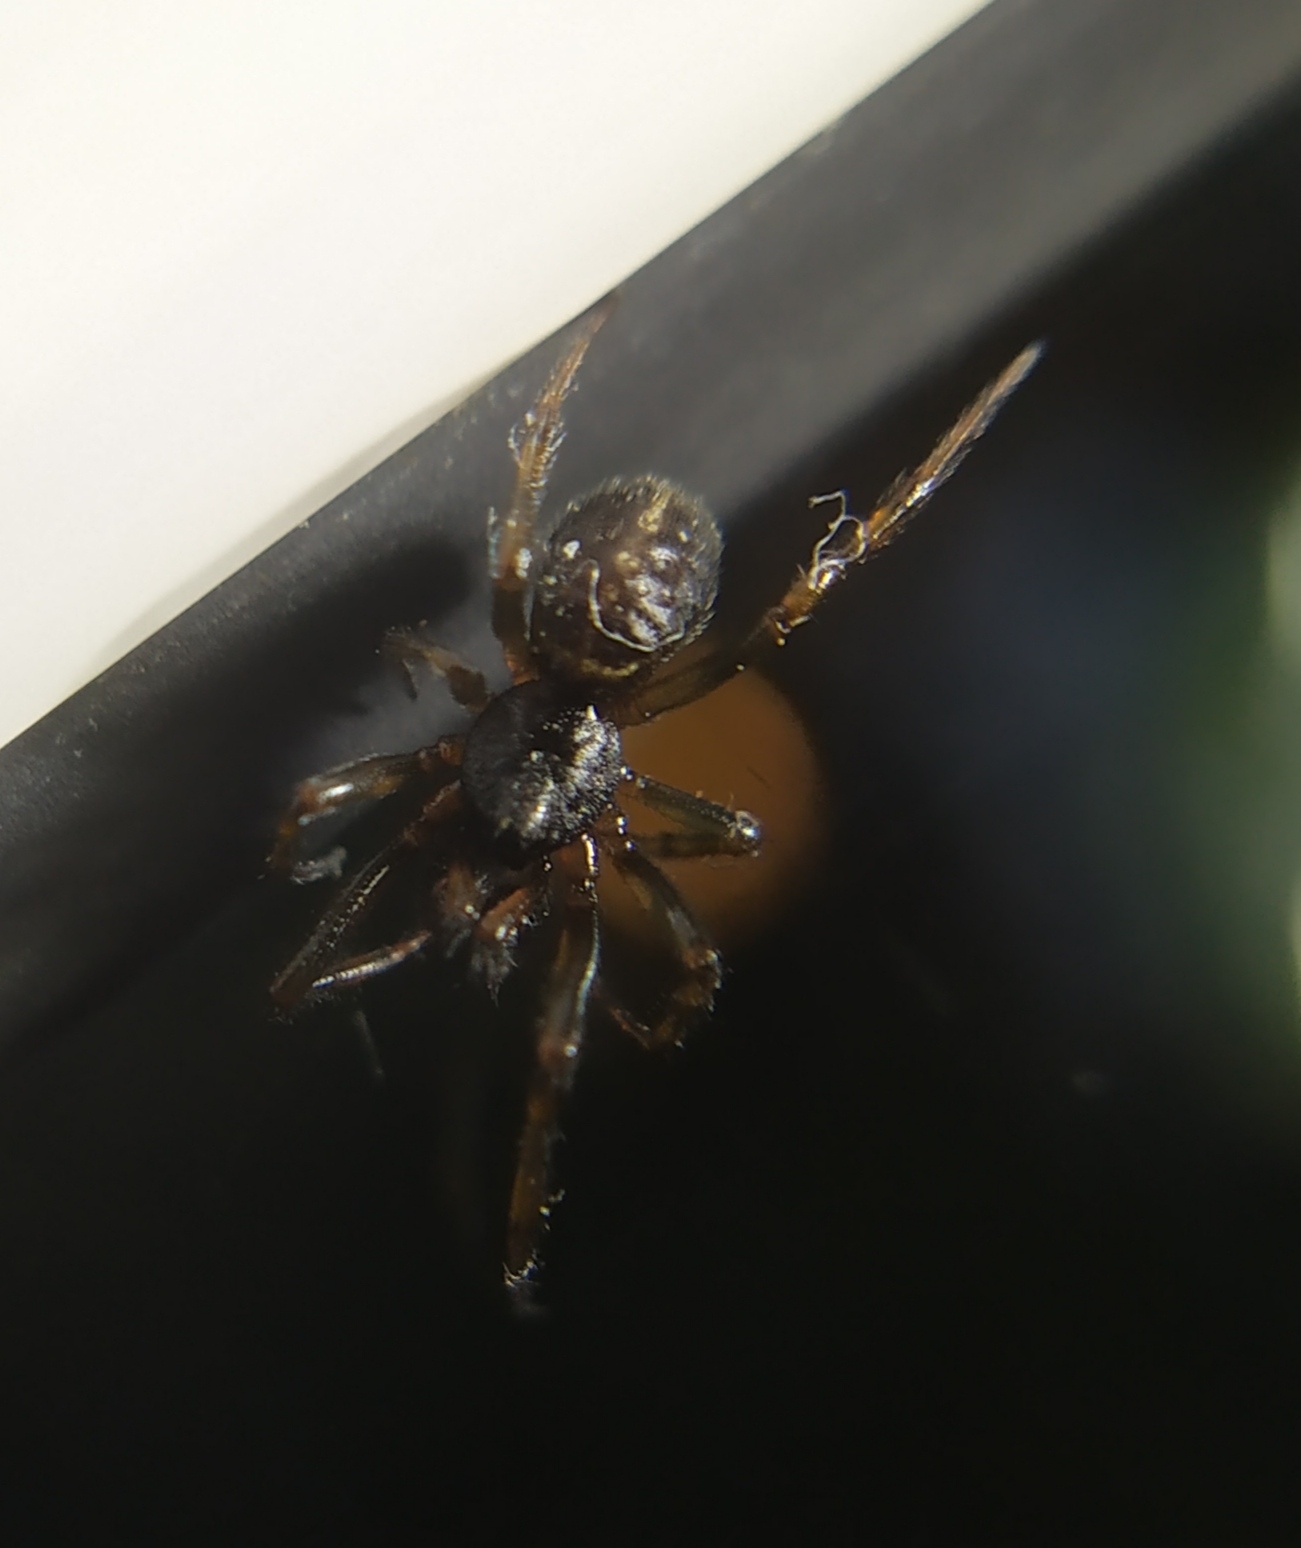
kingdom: Animalia
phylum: Arthropoda
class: Arachnida
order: Araneae
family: Theridiidae
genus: Steatoda
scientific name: Steatoda bipunctata
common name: False widow
